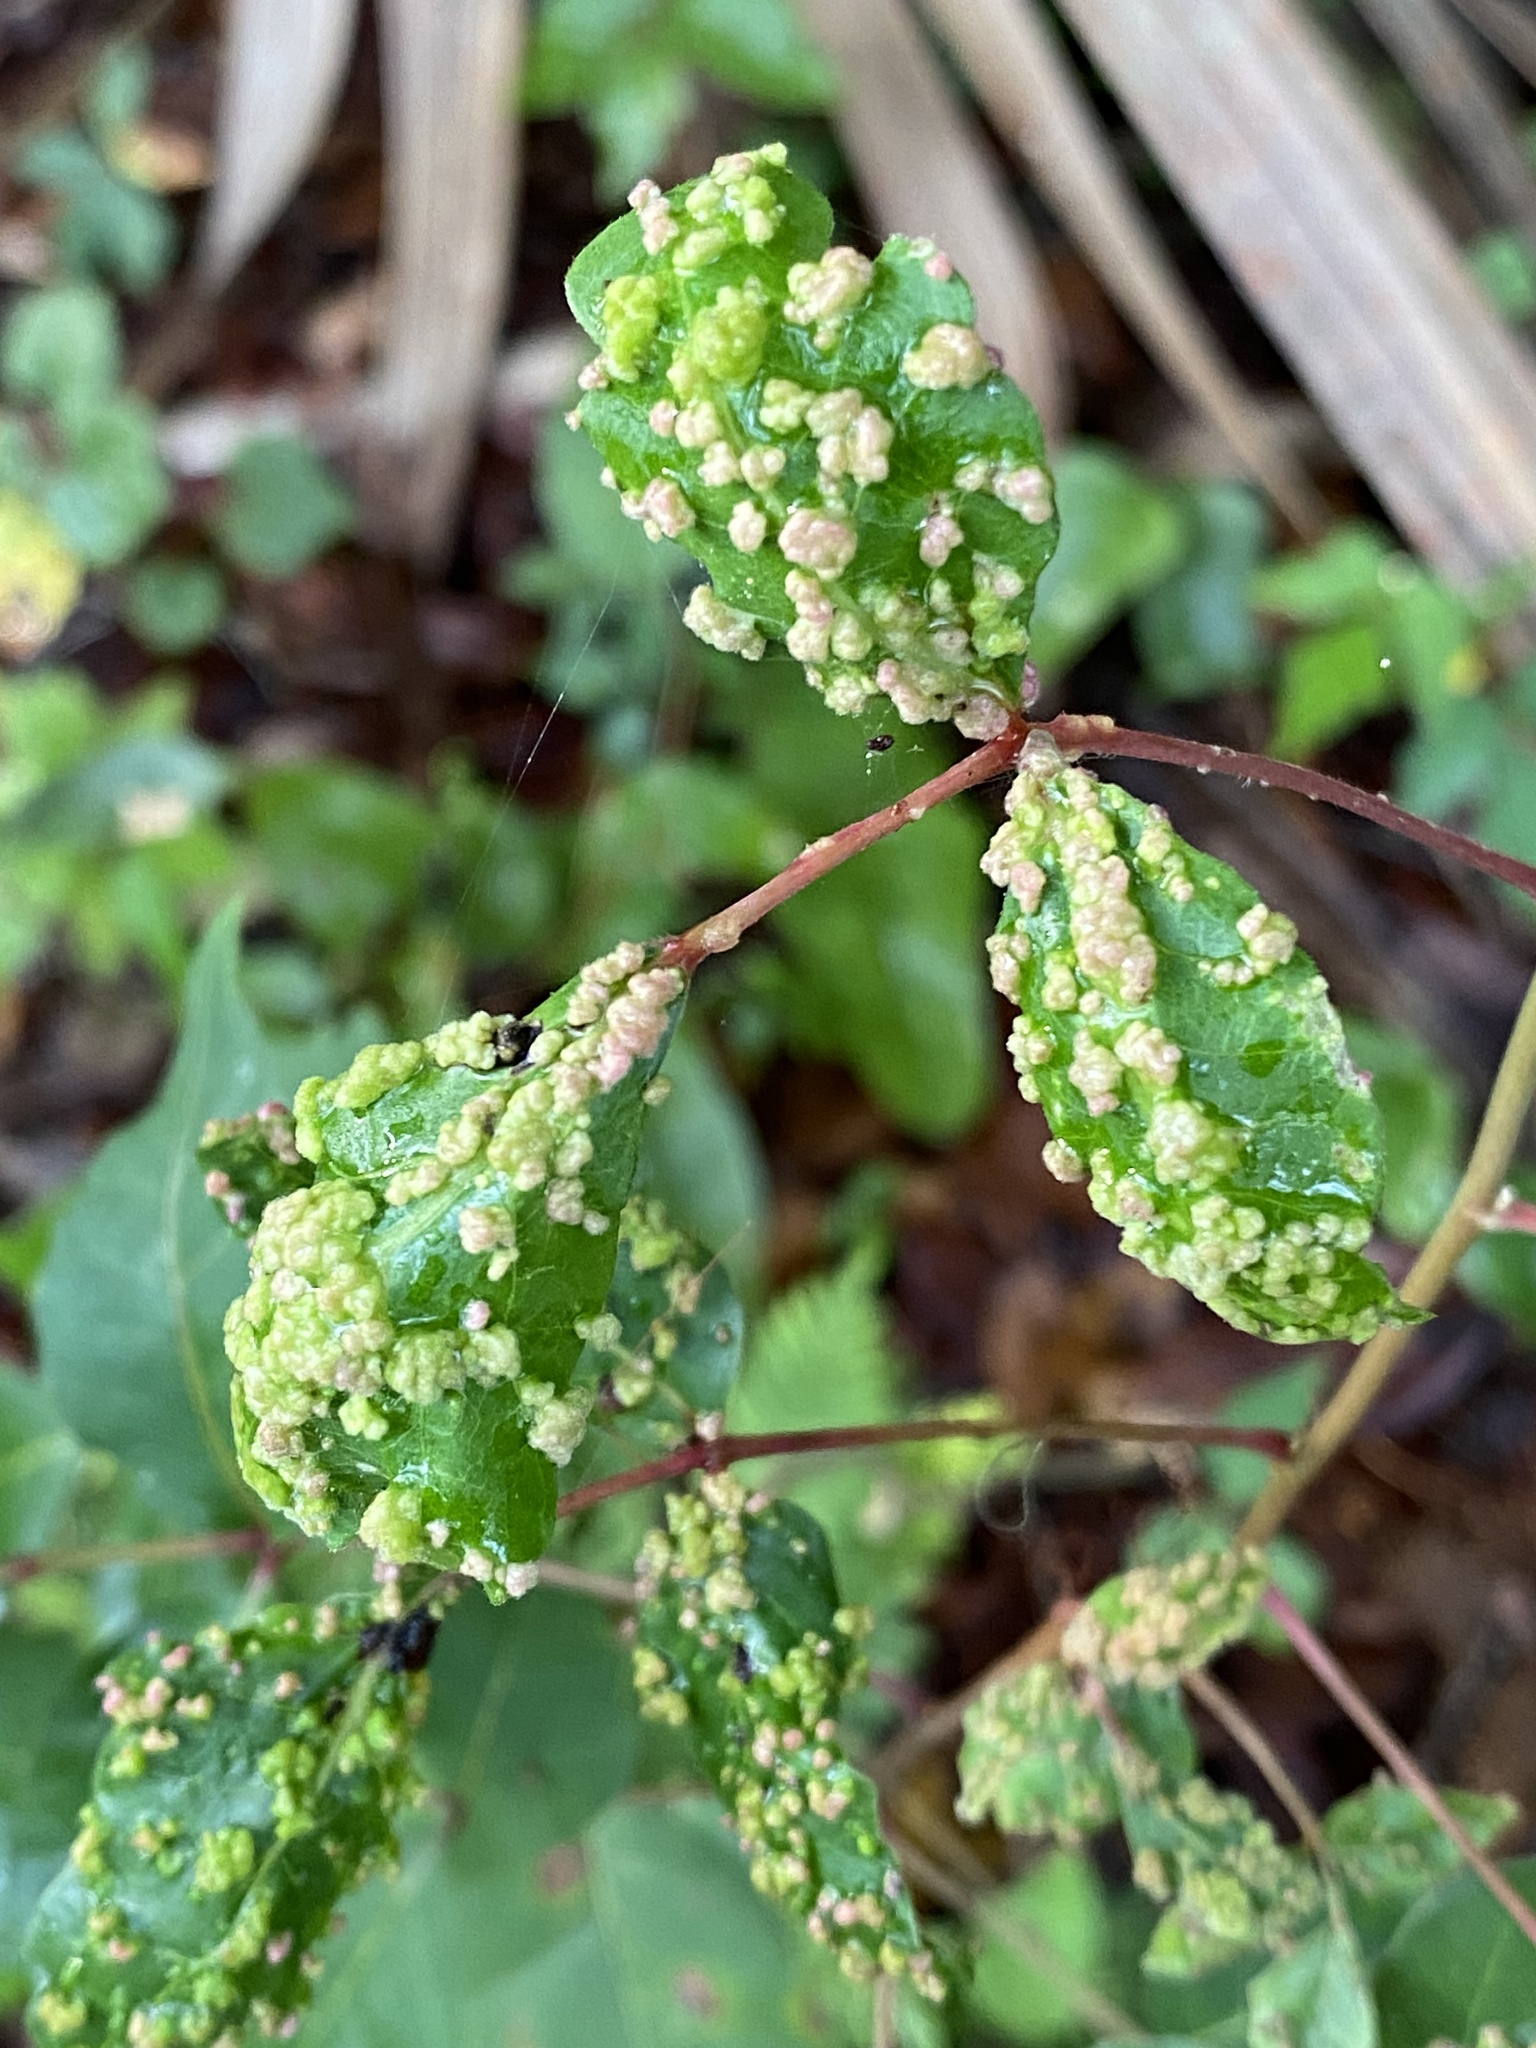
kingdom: Animalia
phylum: Arthropoda
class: Arachnida
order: Trombidiformes
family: Eriophyidae
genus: Aculops
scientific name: Aculops
